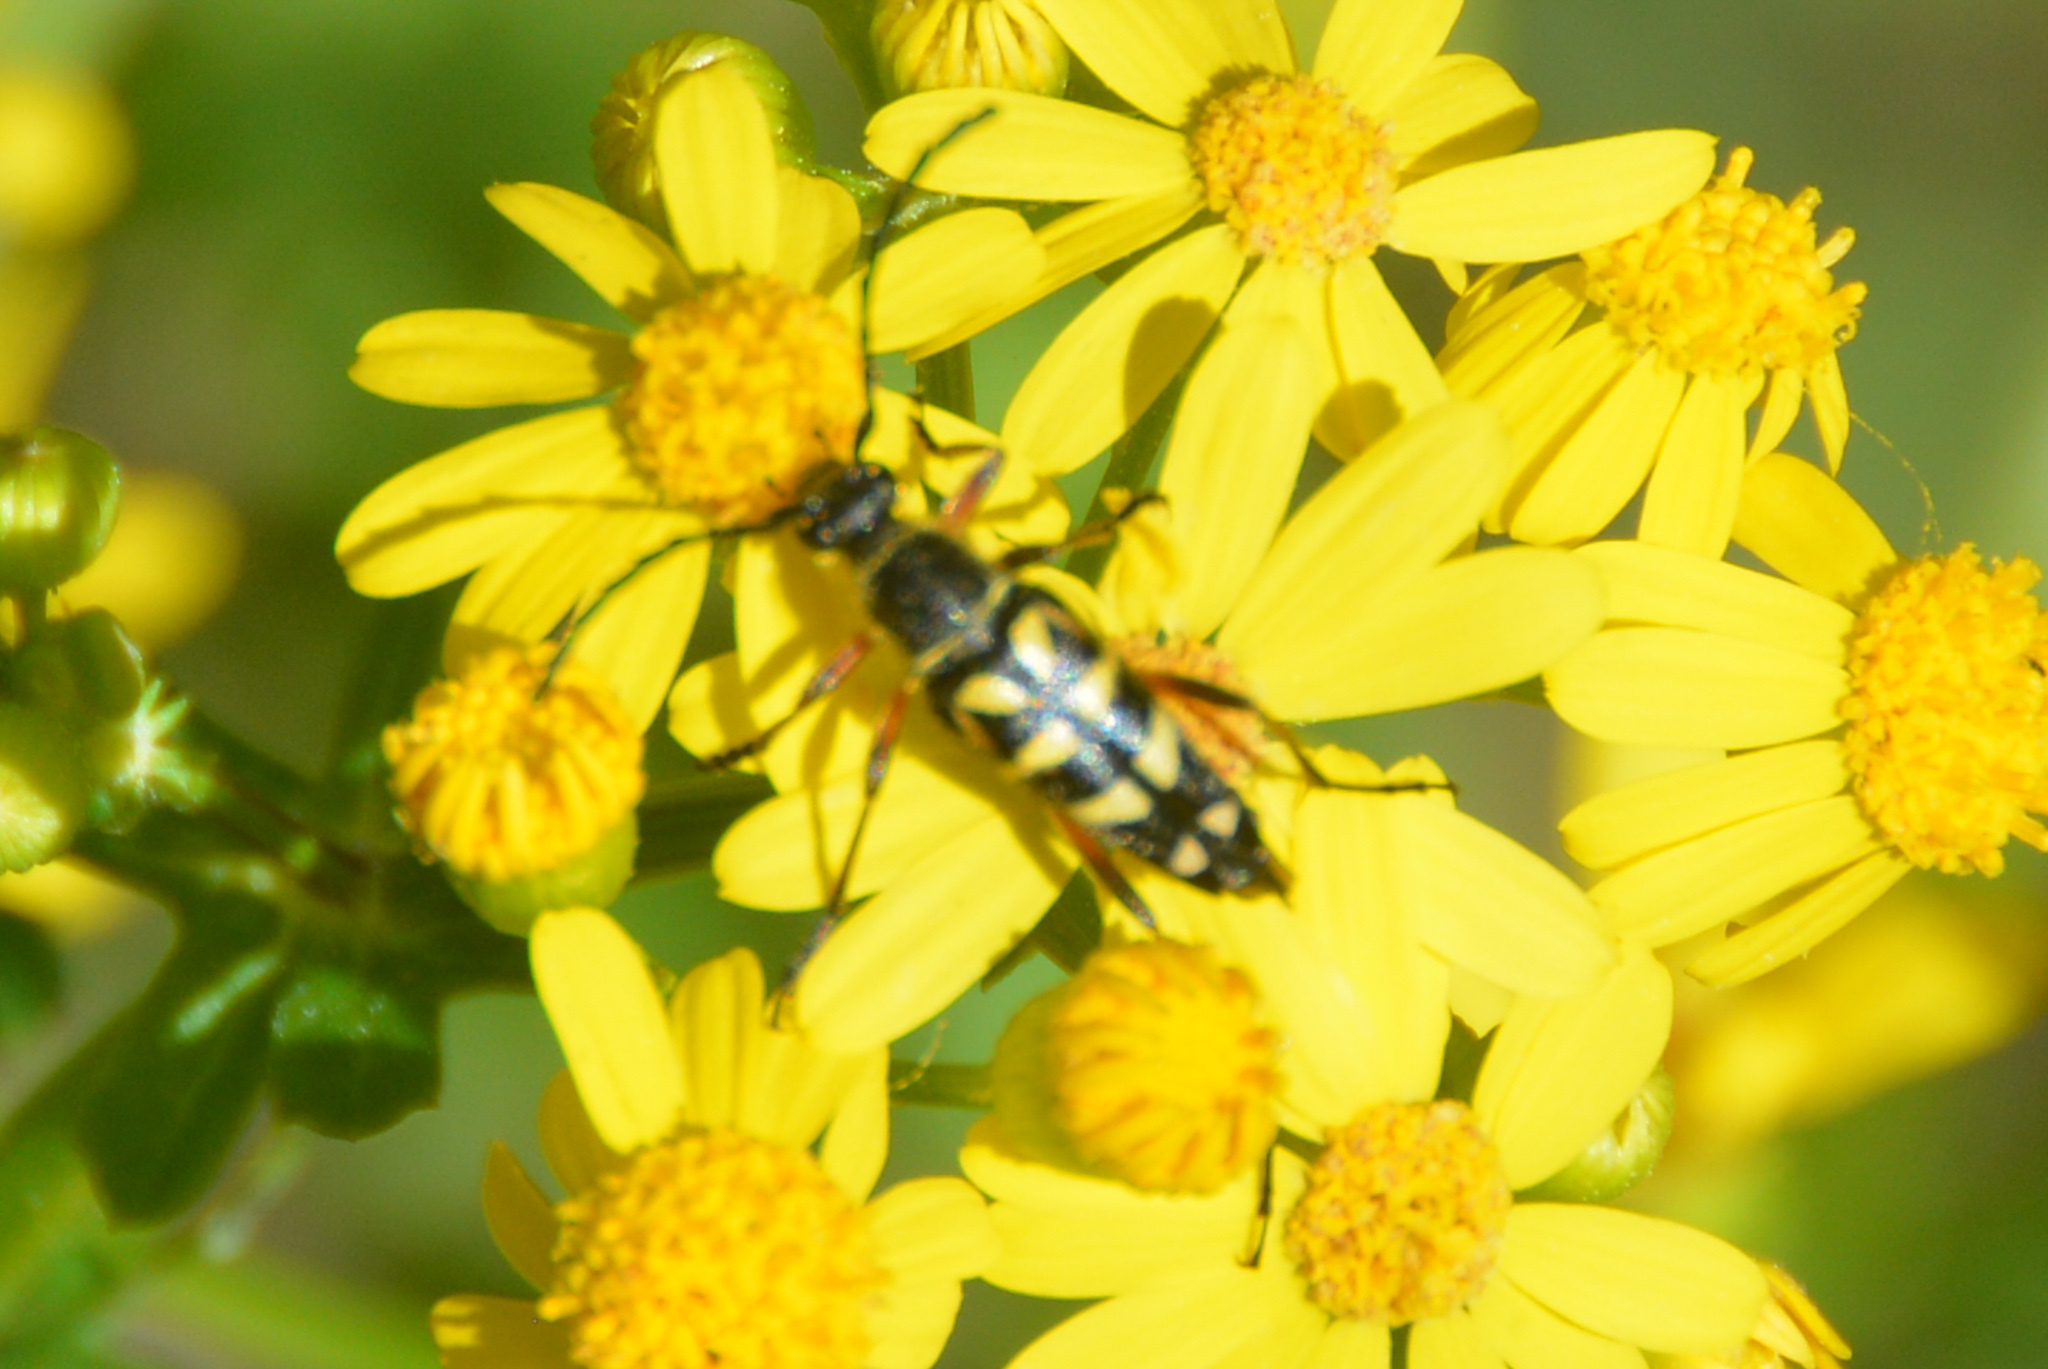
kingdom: Animalia
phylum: Arthropoda
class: Insecta
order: Coleoptera
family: Cerambycidae
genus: Typocerus
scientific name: Typocerus zebra
